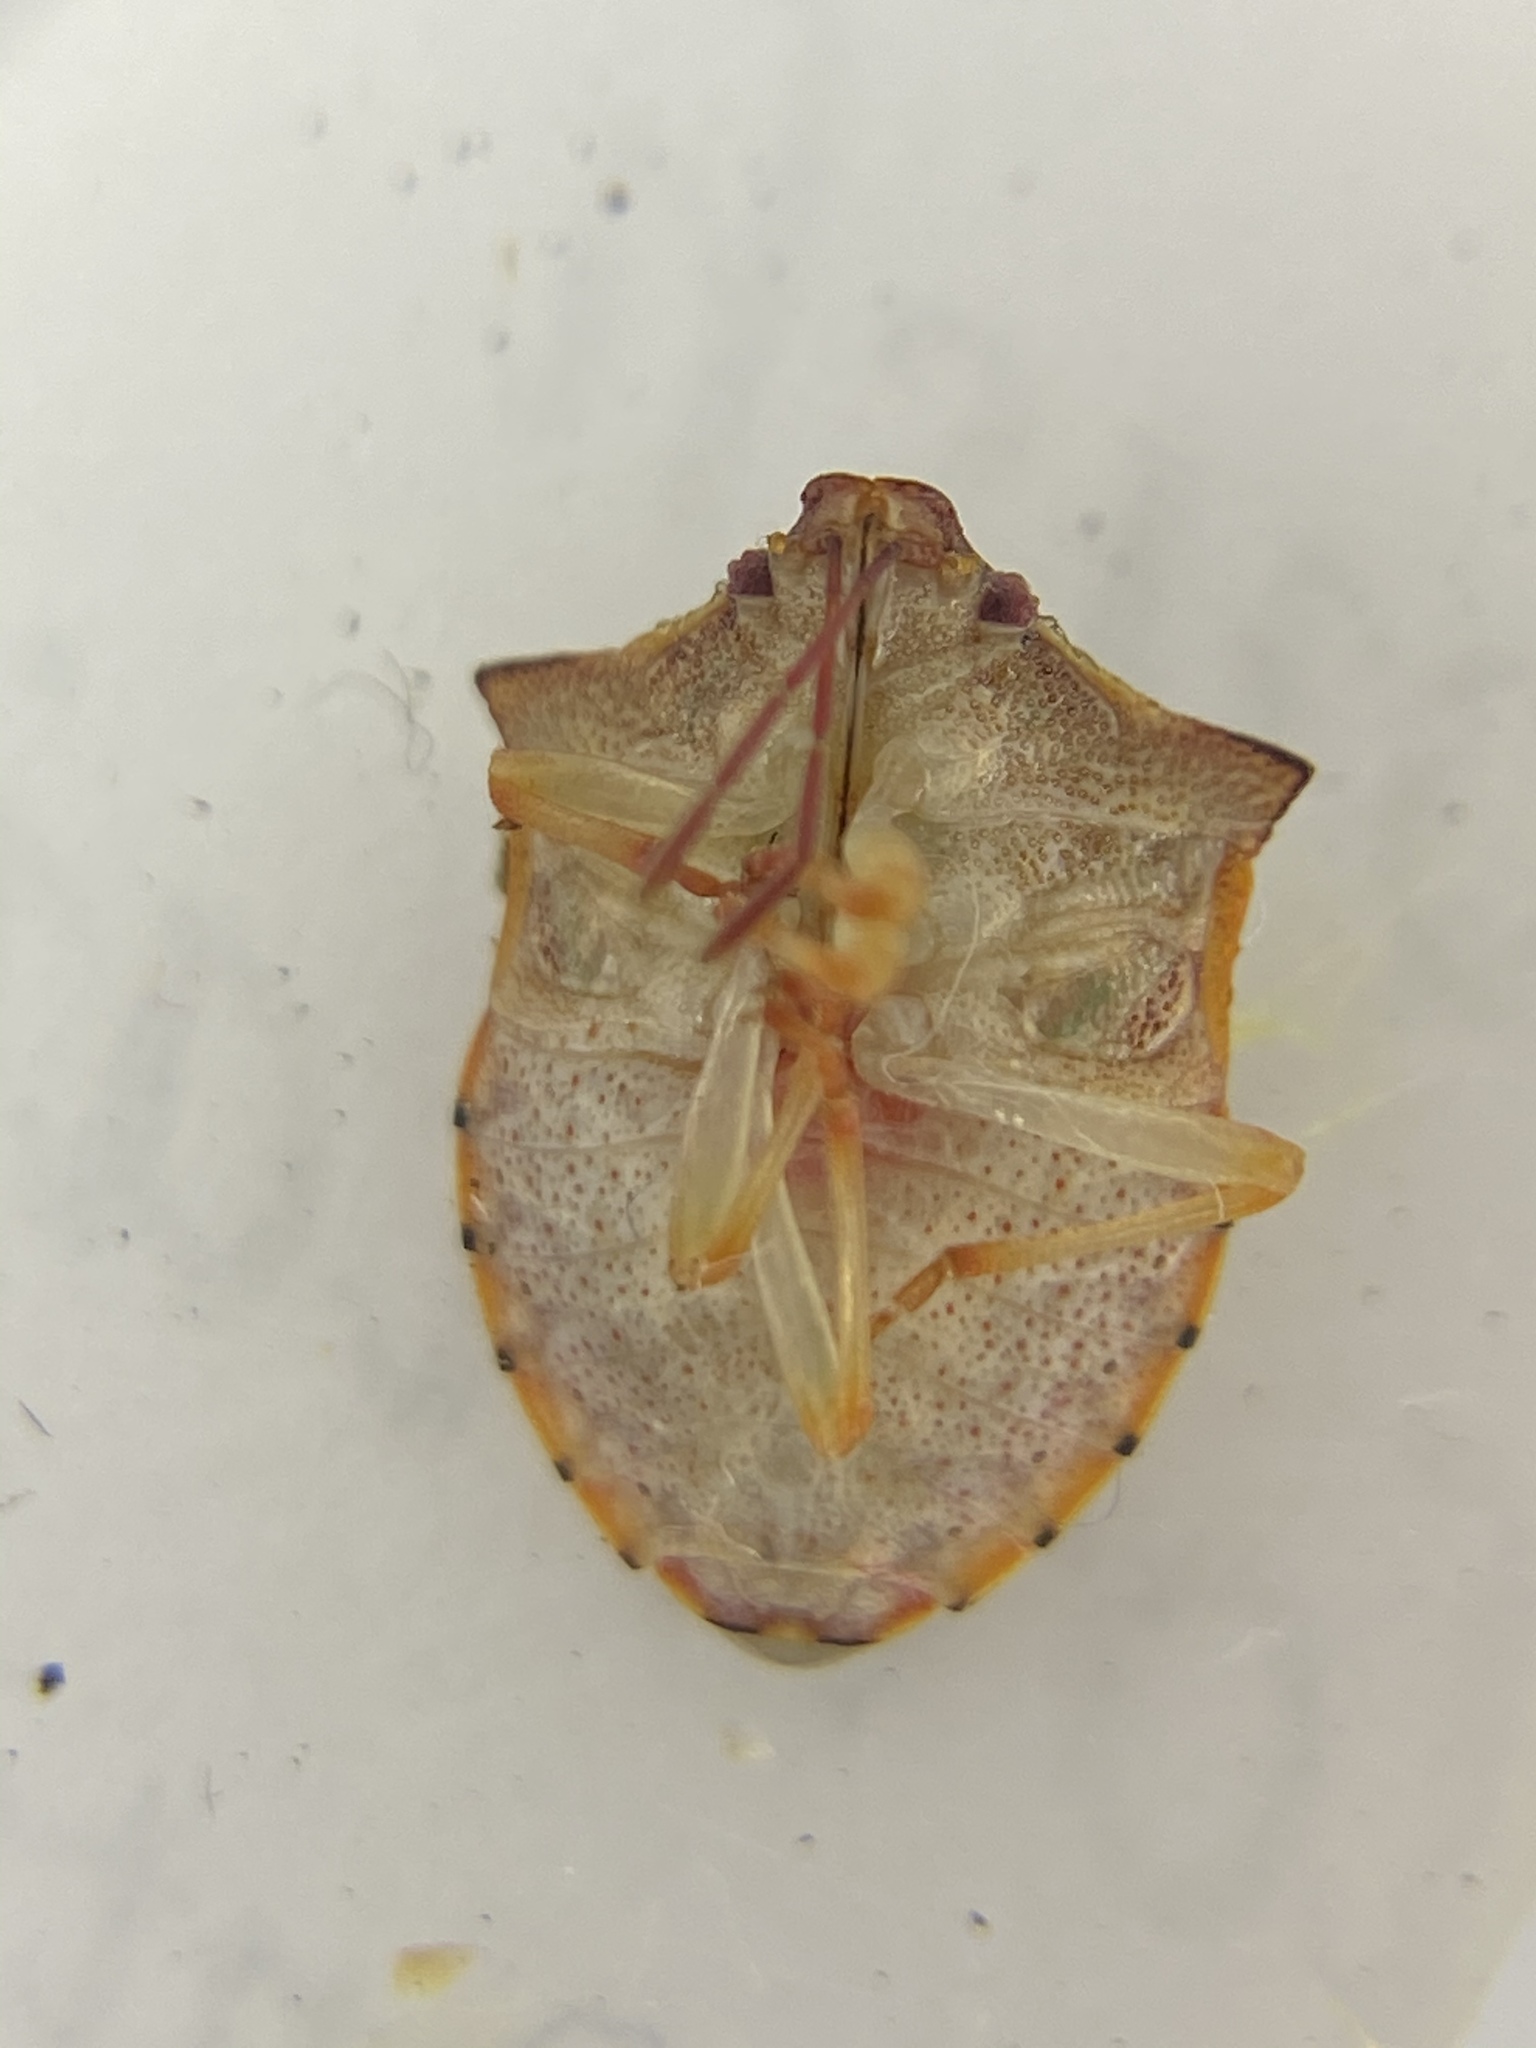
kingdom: Animalia
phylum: Arthropoda
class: Insecta
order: Hemiptera
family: Pentatomidae
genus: Dendrocoris
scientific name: Dendrocoris humeralis
